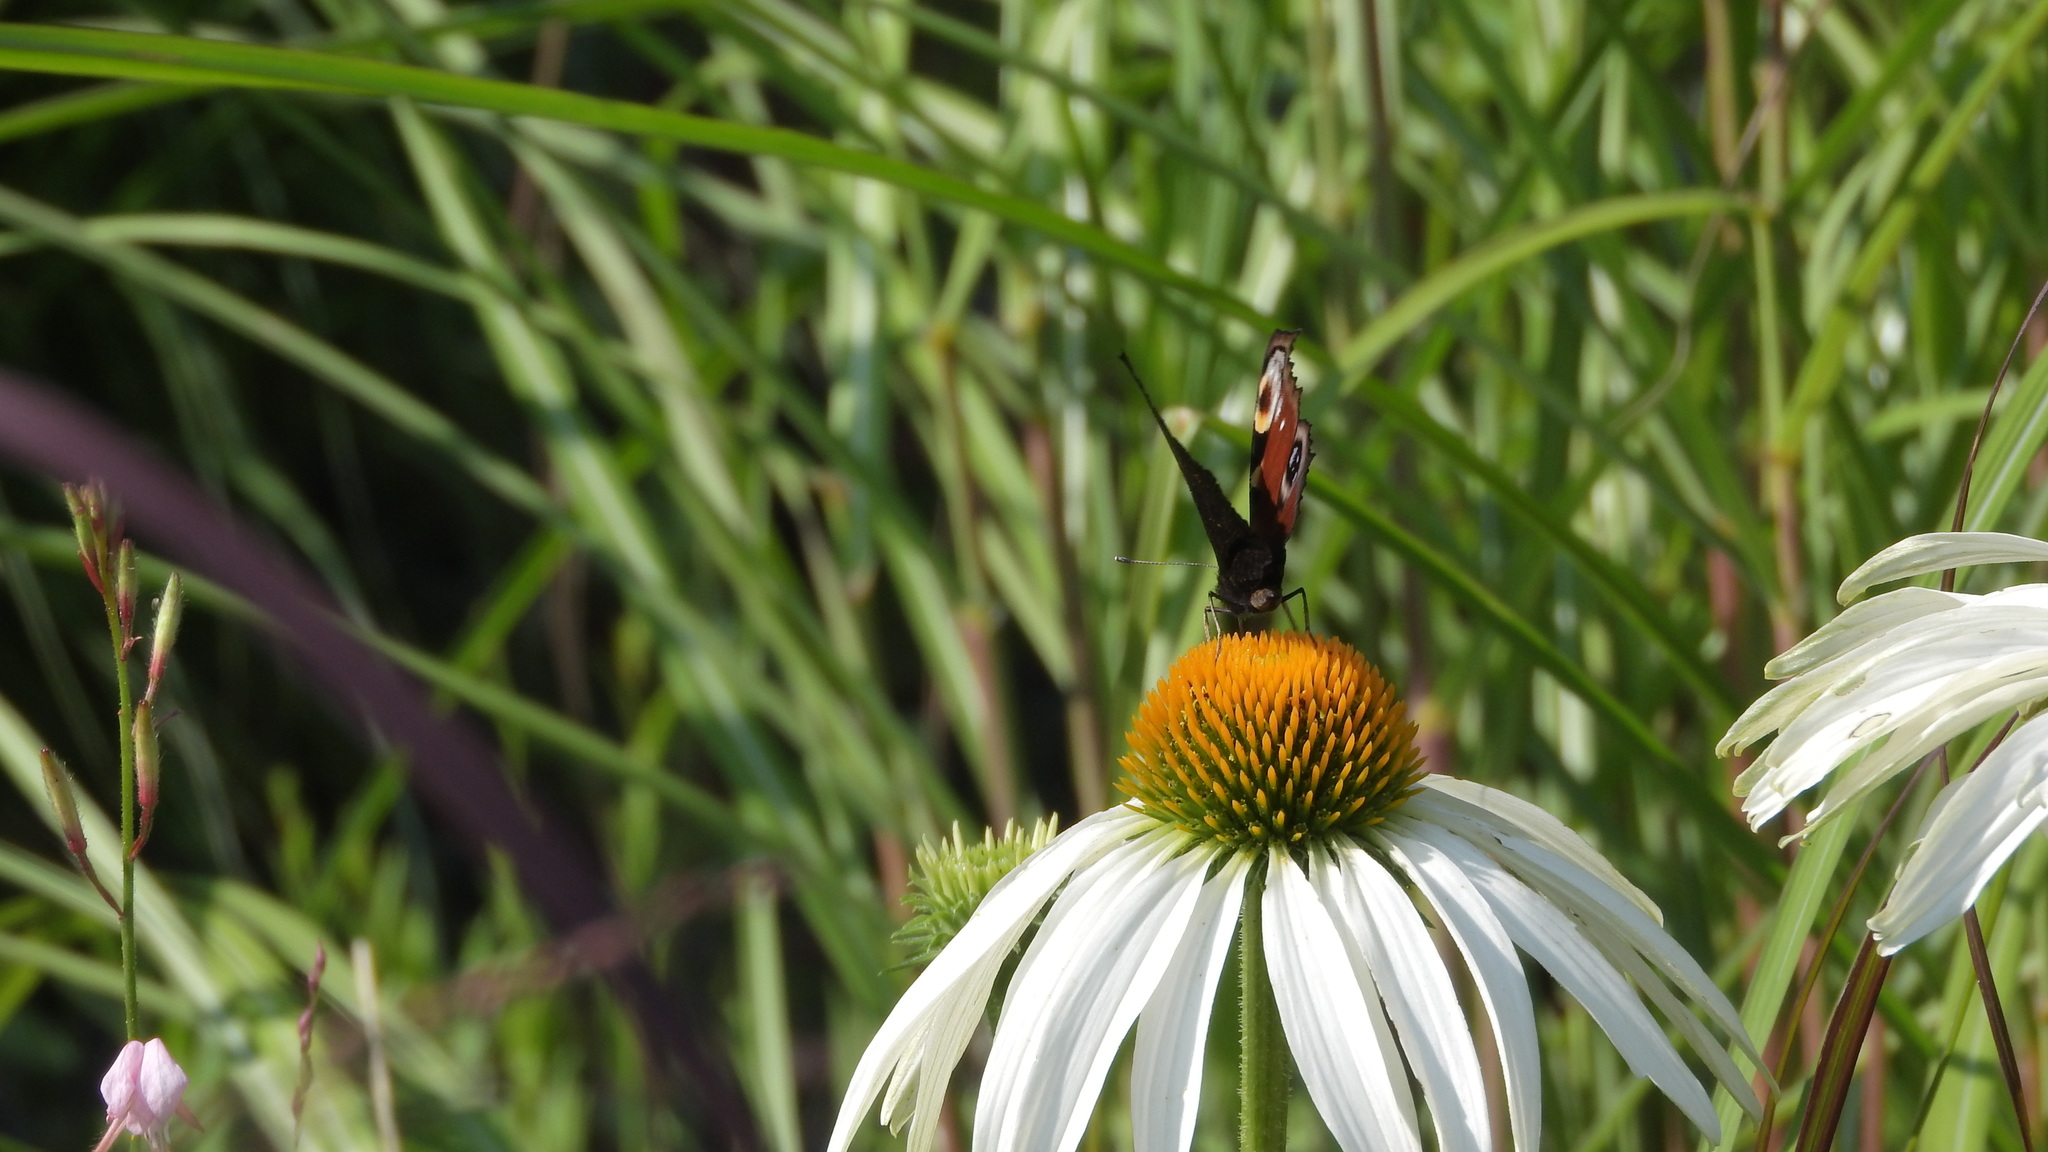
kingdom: Animalia
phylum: Arthropoda
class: Insecta
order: Lepidoptera
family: Nymphalidae
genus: Aglais
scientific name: Aglais io
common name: Peacock
